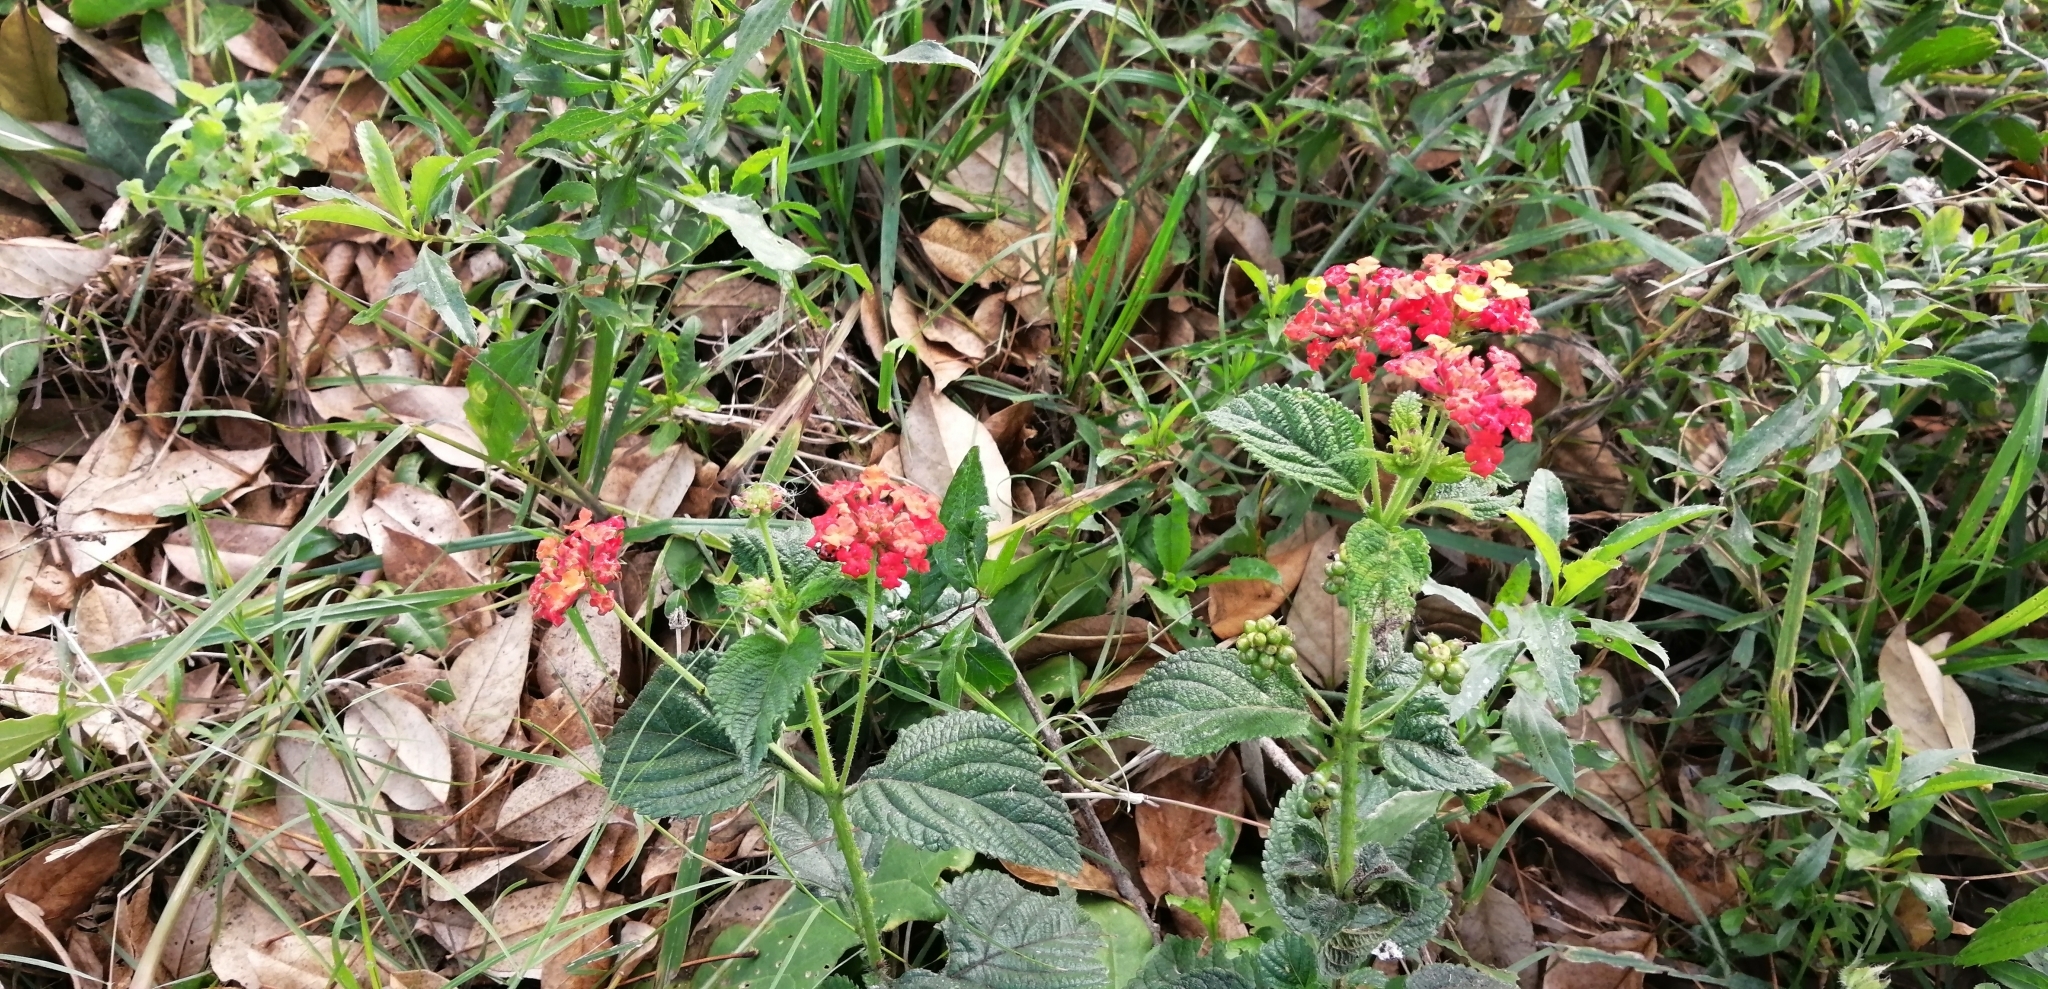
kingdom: Plantae
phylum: Tracheophyta
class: Magnoliopsida
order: Lamiales
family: Verbenaceae
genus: Lantana
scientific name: Lantana camara
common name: Lantana
